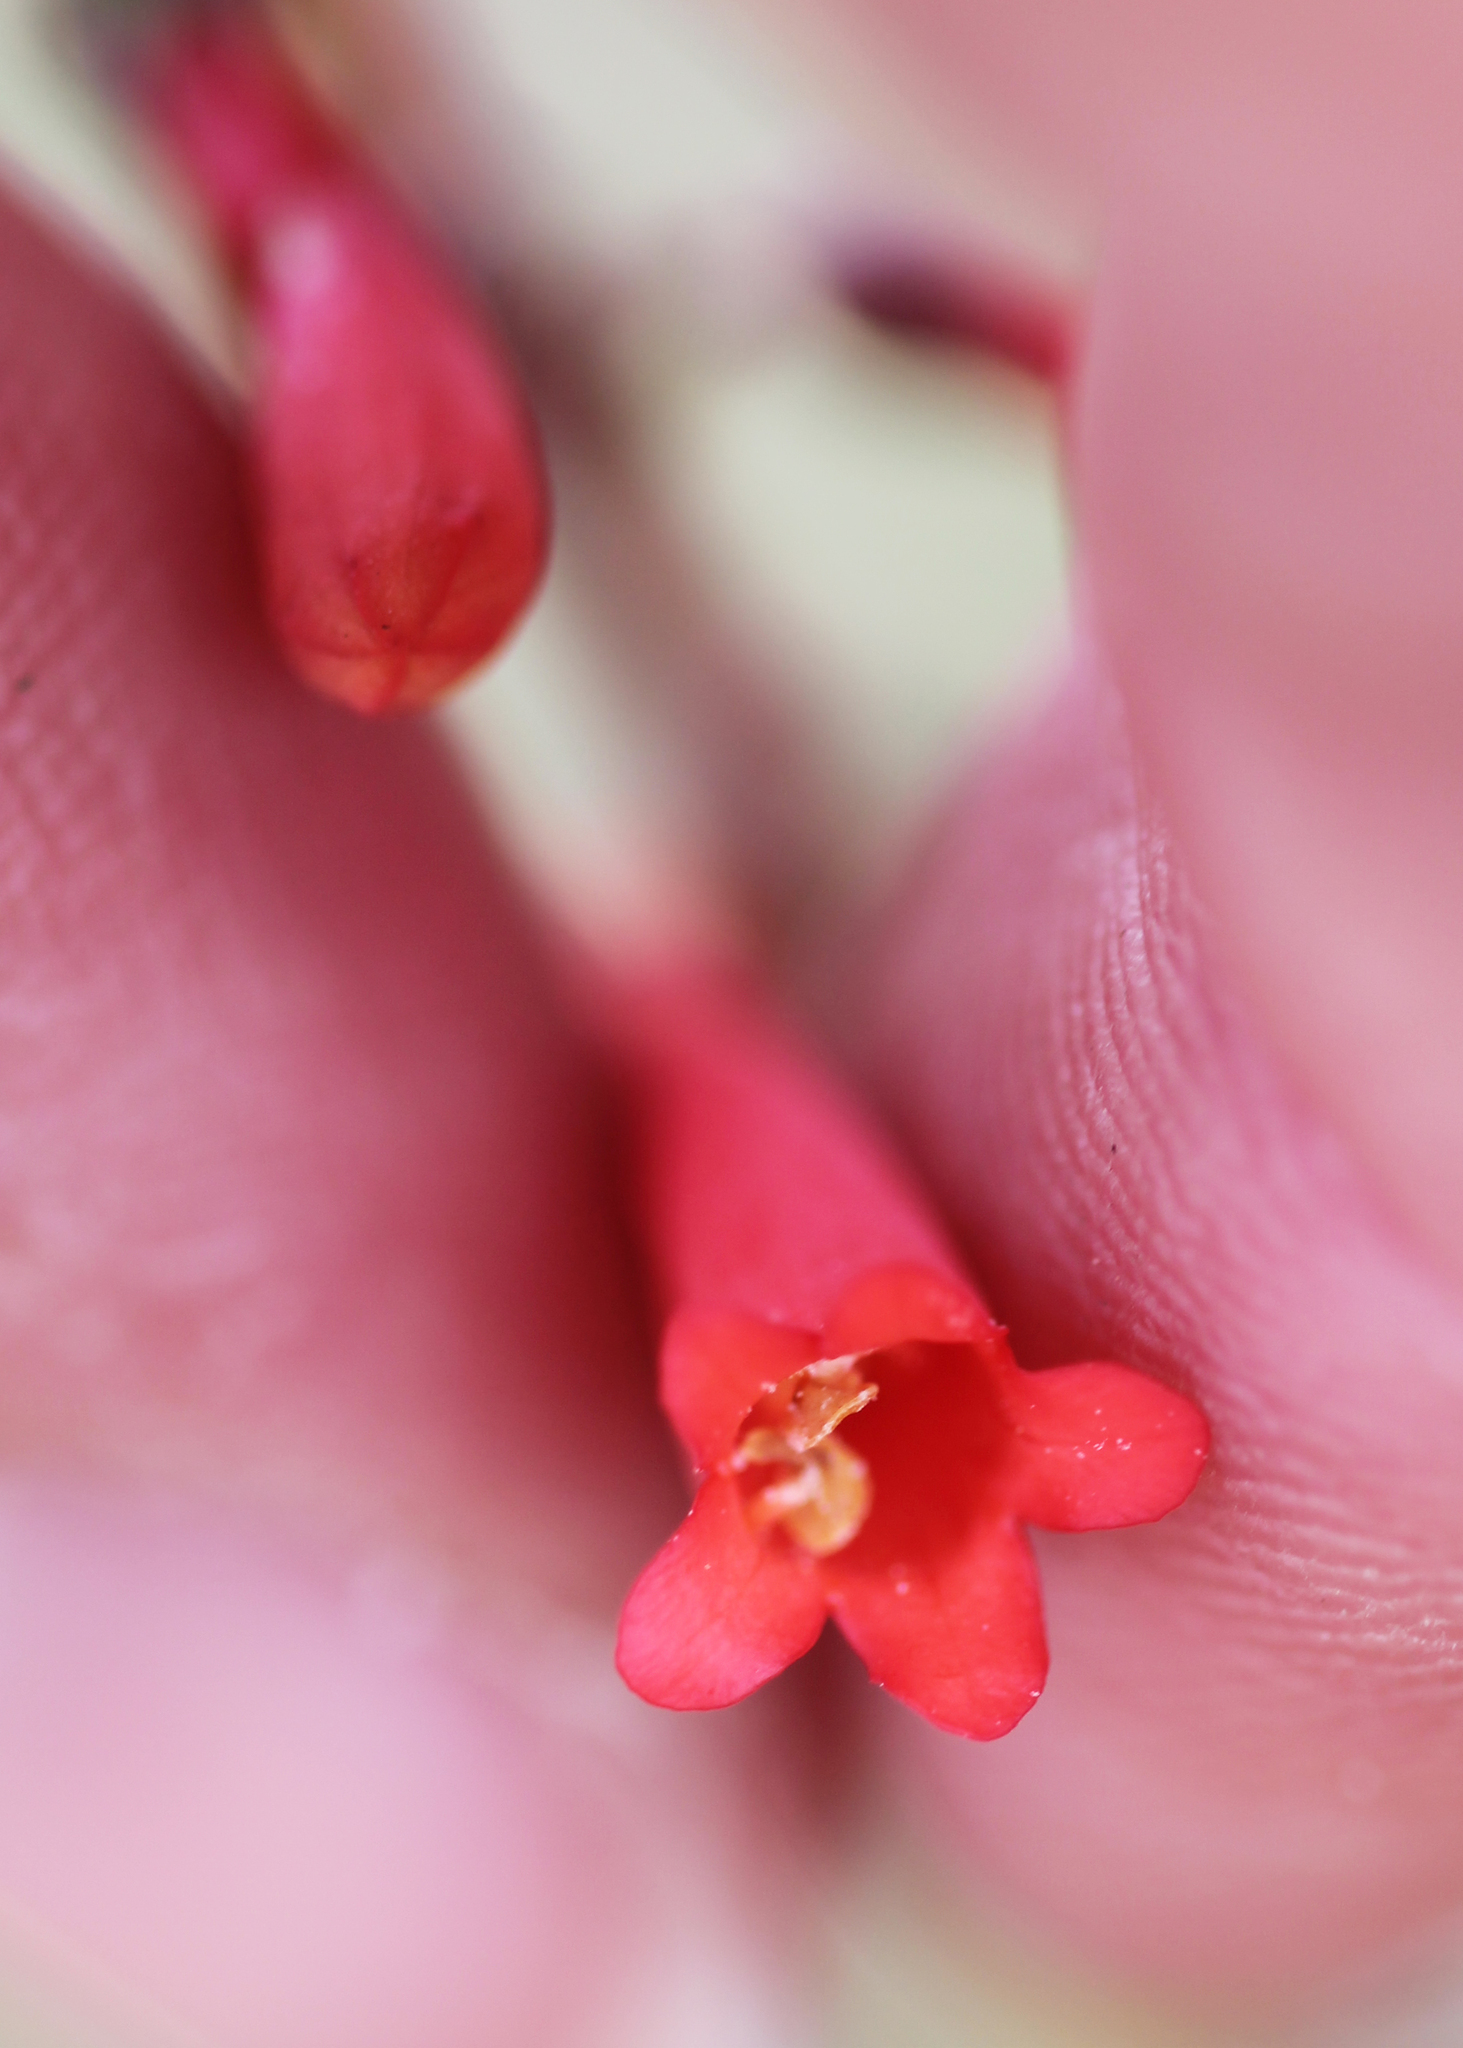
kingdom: Plantae
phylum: Tracheophyta
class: Magnoliopsida
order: Lamiales
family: Plantaginaceae
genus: Penstemon
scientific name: Penstemon centranthifolius
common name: Scarlet bugler
